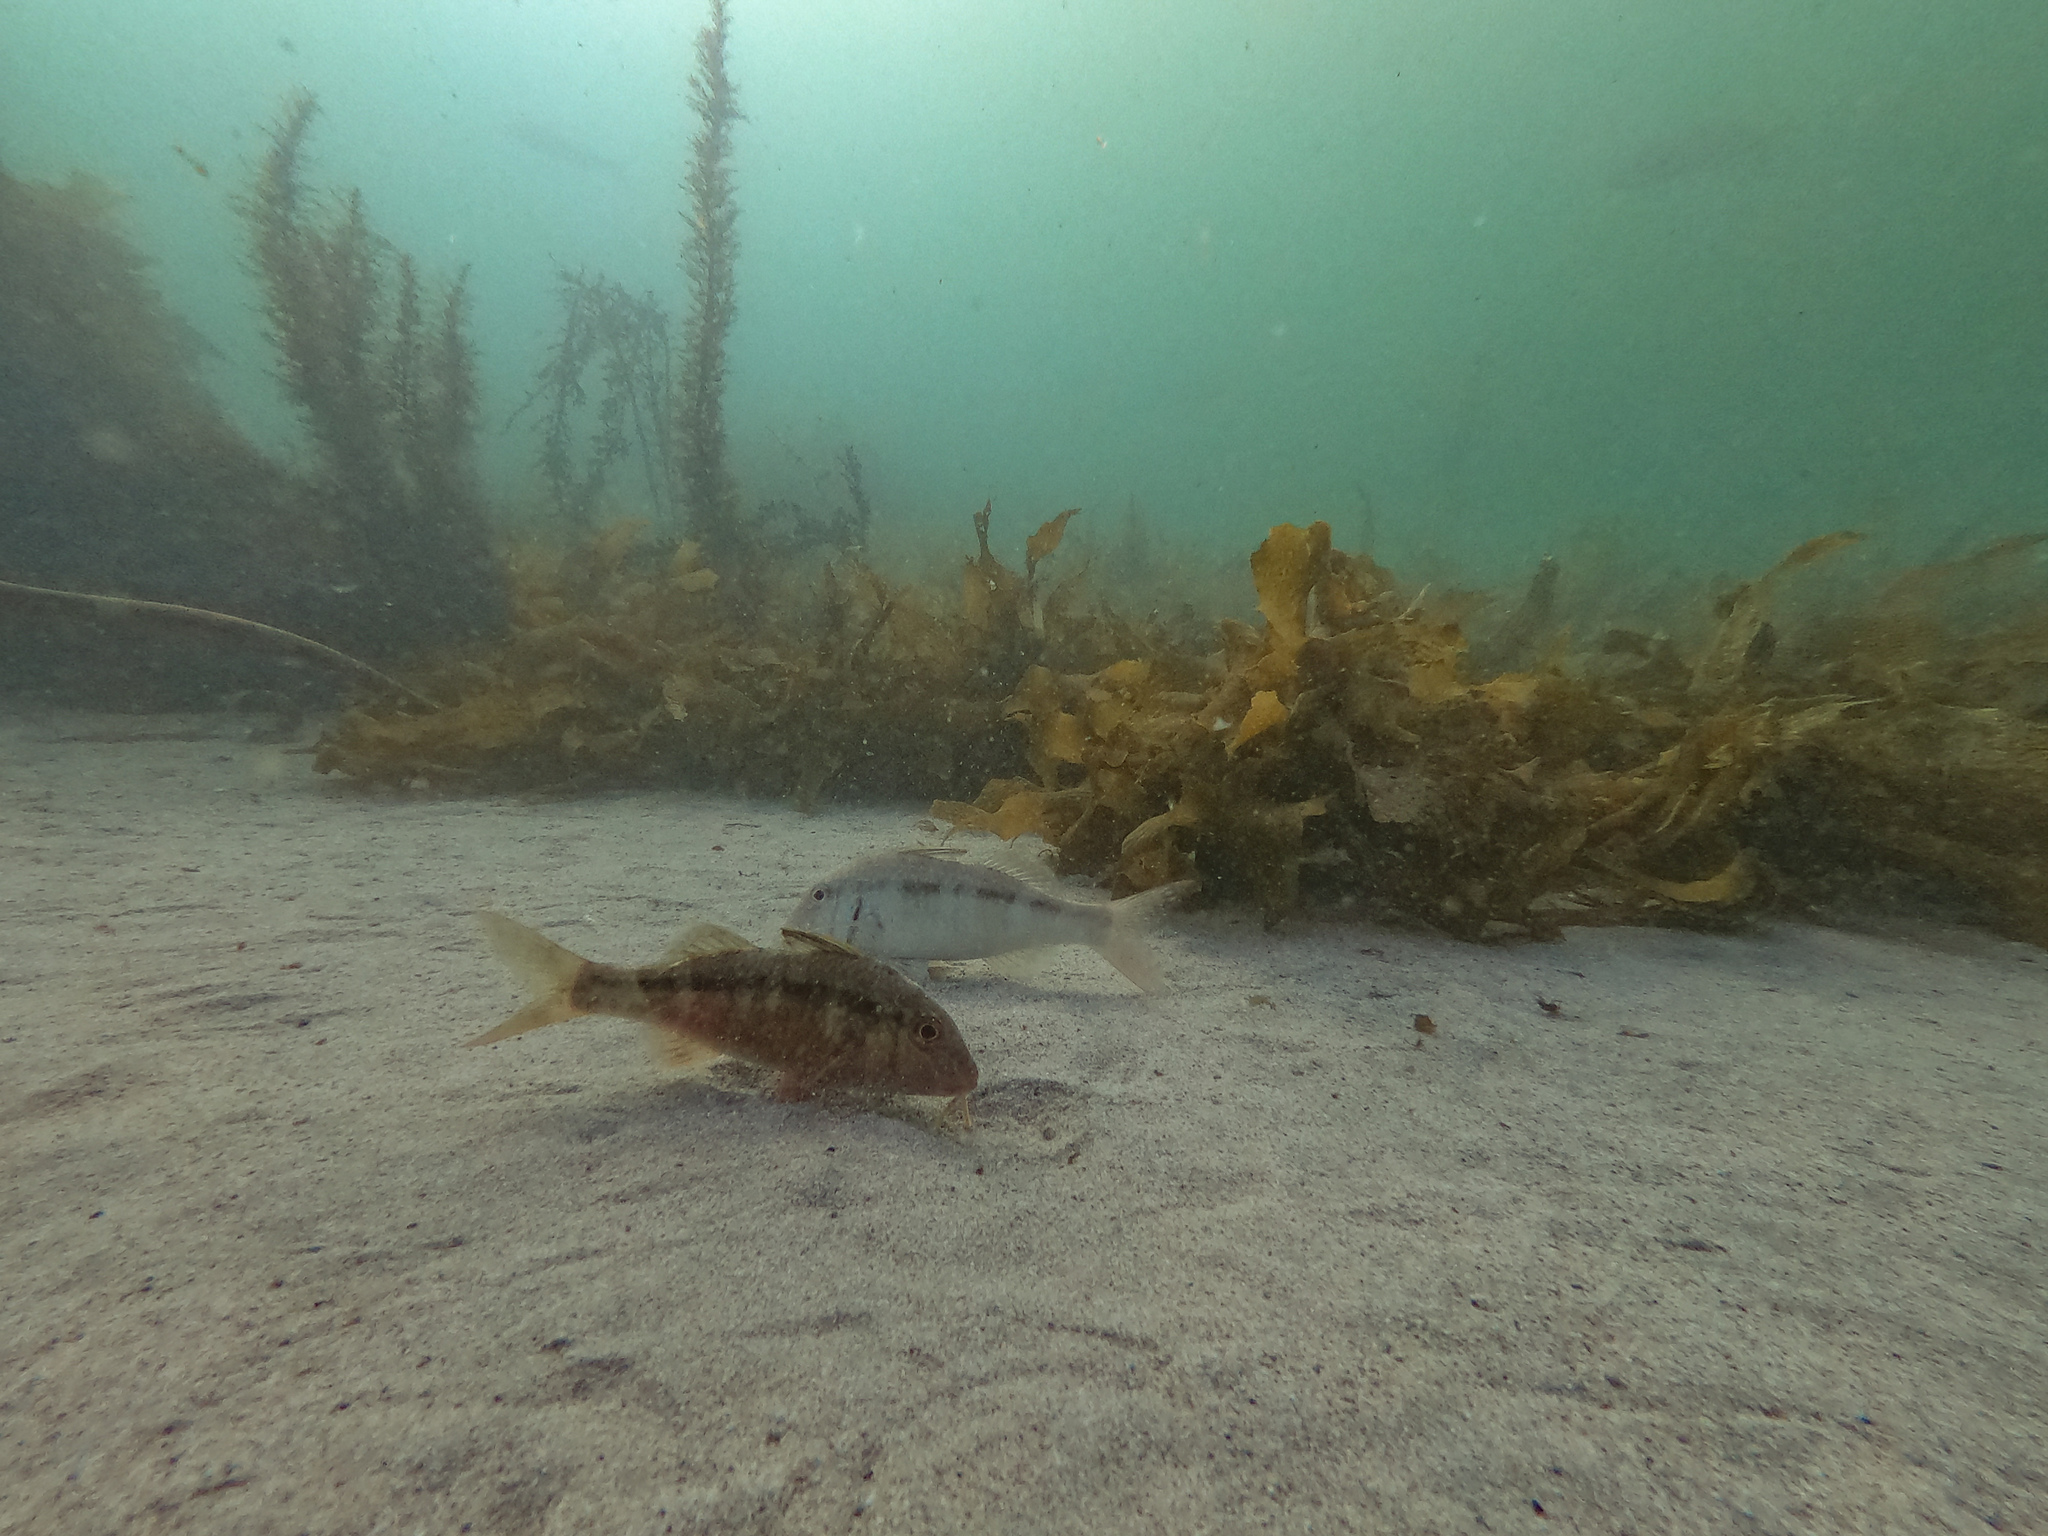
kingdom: Animalia
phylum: Chordata
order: Perciformes
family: Mullidae
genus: Upeneichthys
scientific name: Upeneichthys lineatus
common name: Red mullet
